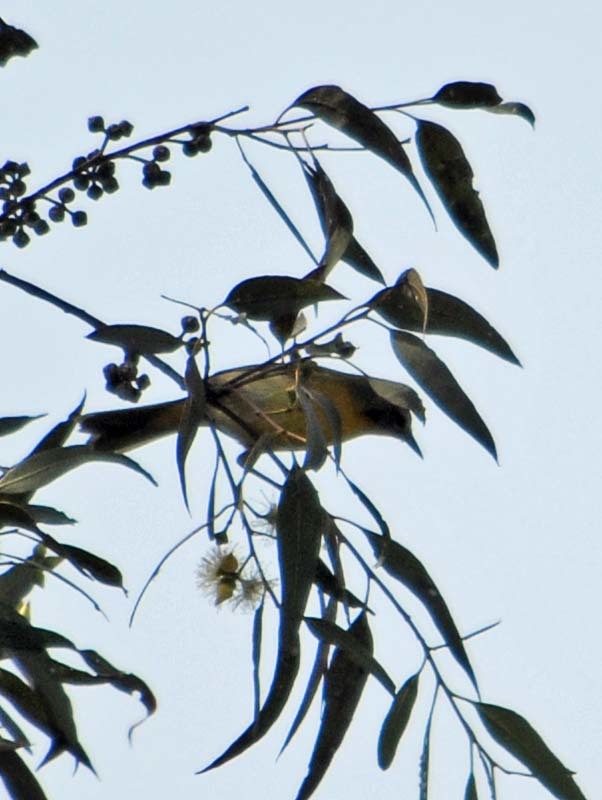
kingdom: Animalia
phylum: Chordata
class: Aves
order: Passeriformes
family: Parulidae
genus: Leiothlypis
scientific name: Leiothlypis ruficapilla
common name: Nashville warbler
